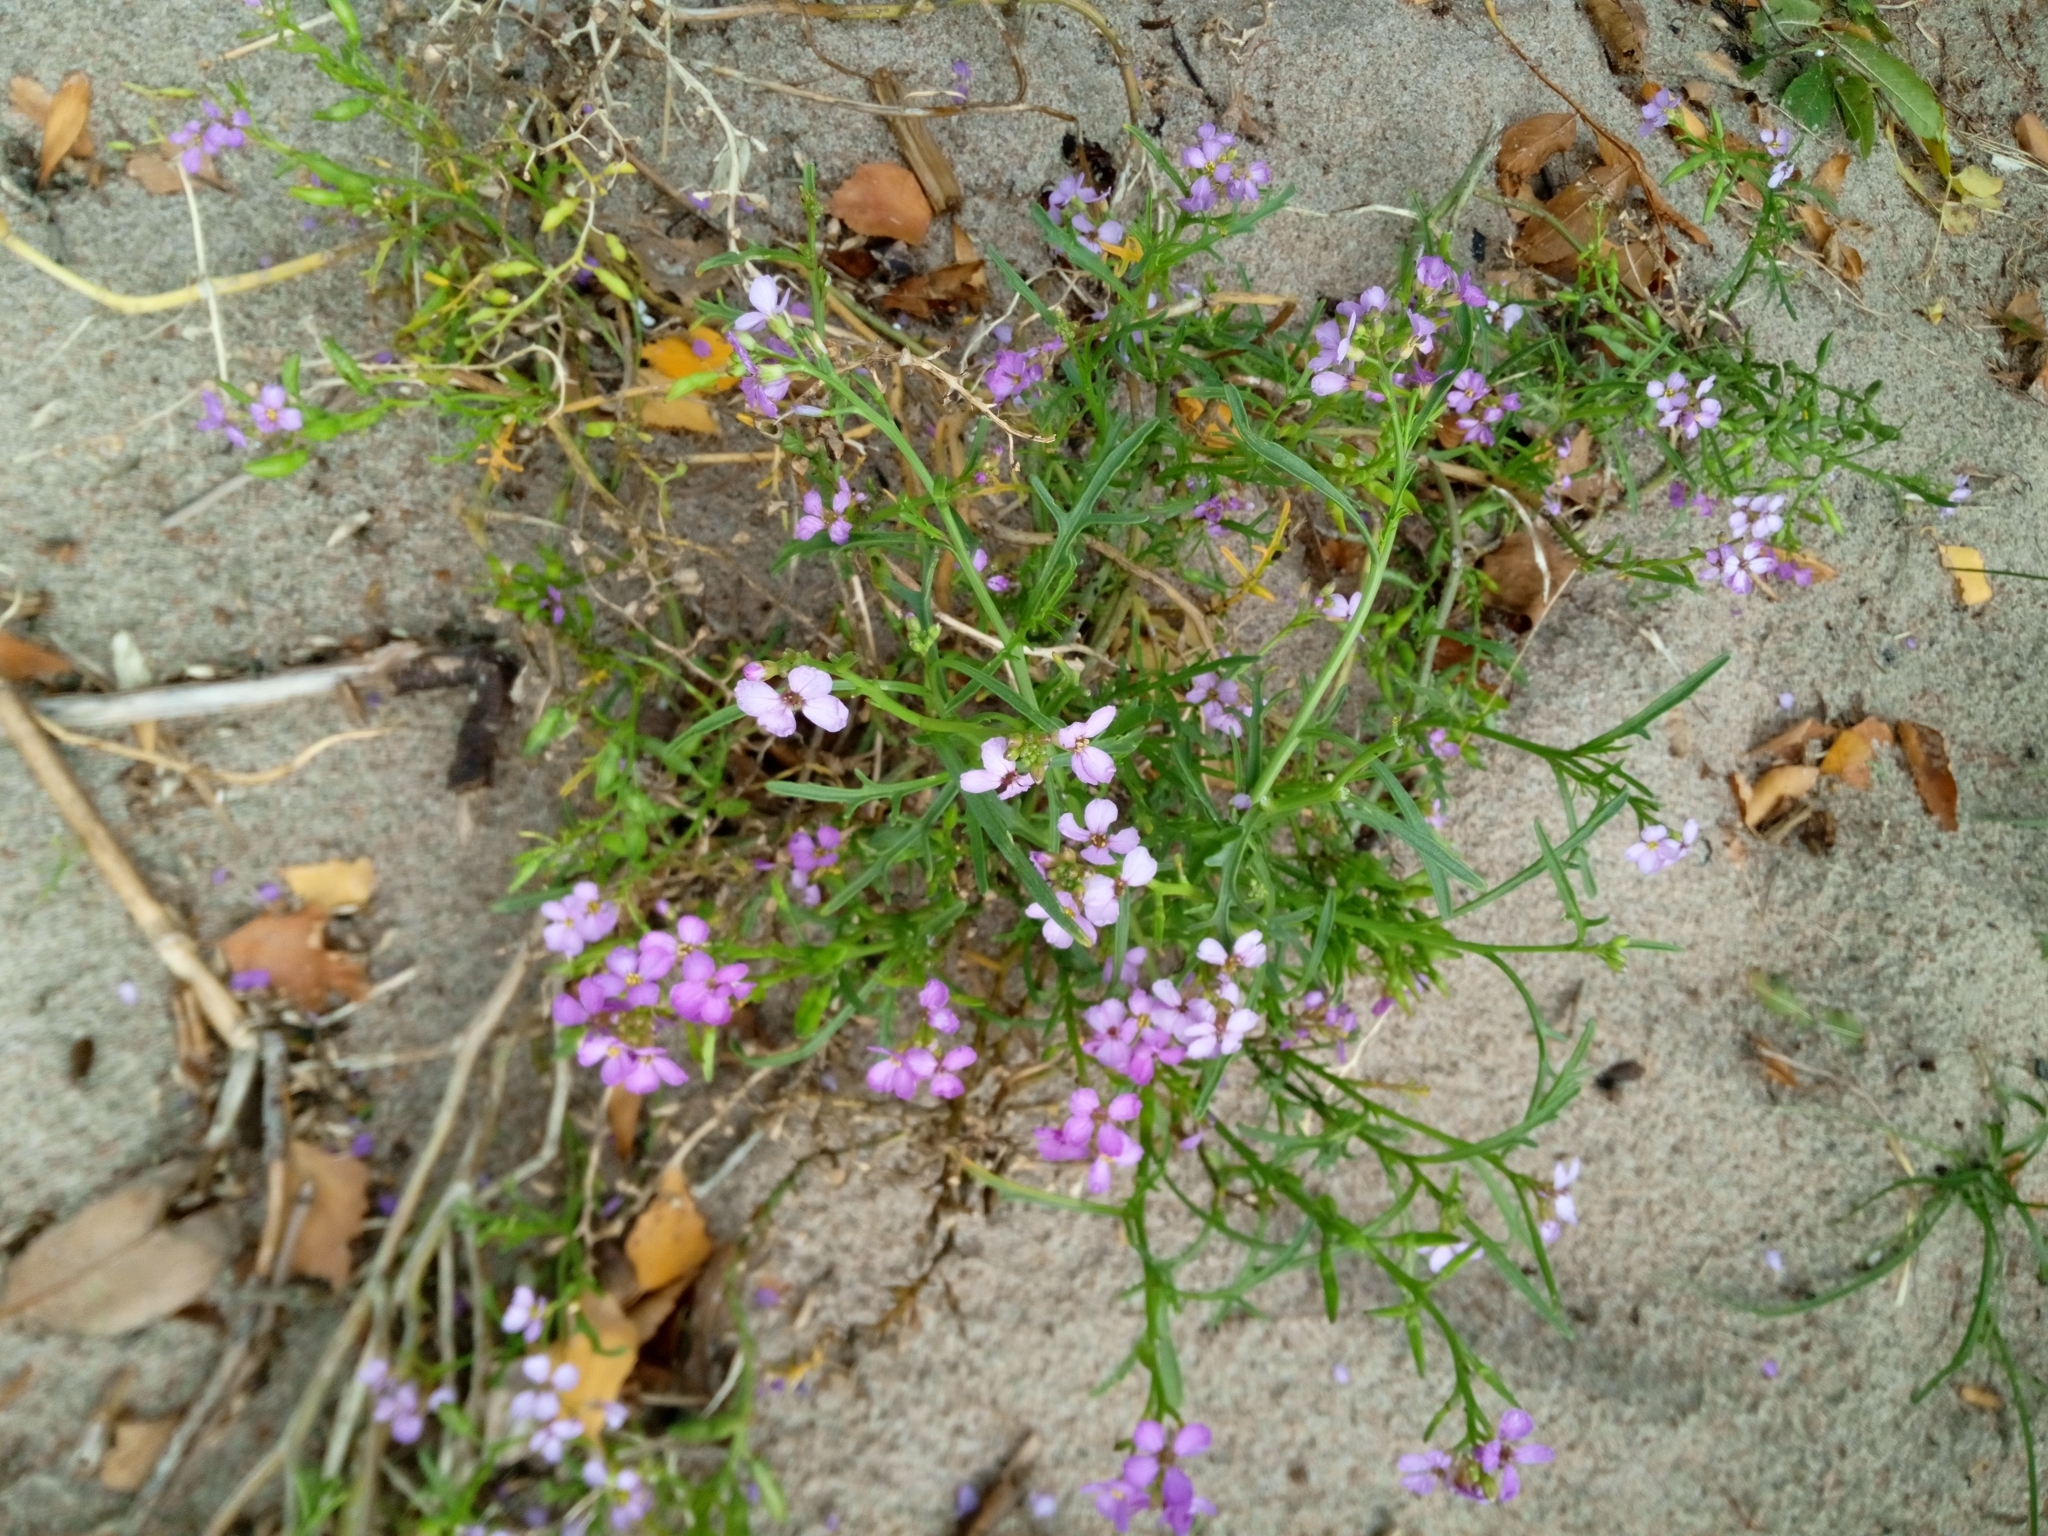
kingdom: Plantae
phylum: Tracheophyta
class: Magnoliopsida
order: Brassicales
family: Brassicaceae
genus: Cakile
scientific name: Cakile maritima
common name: Sea rocket
